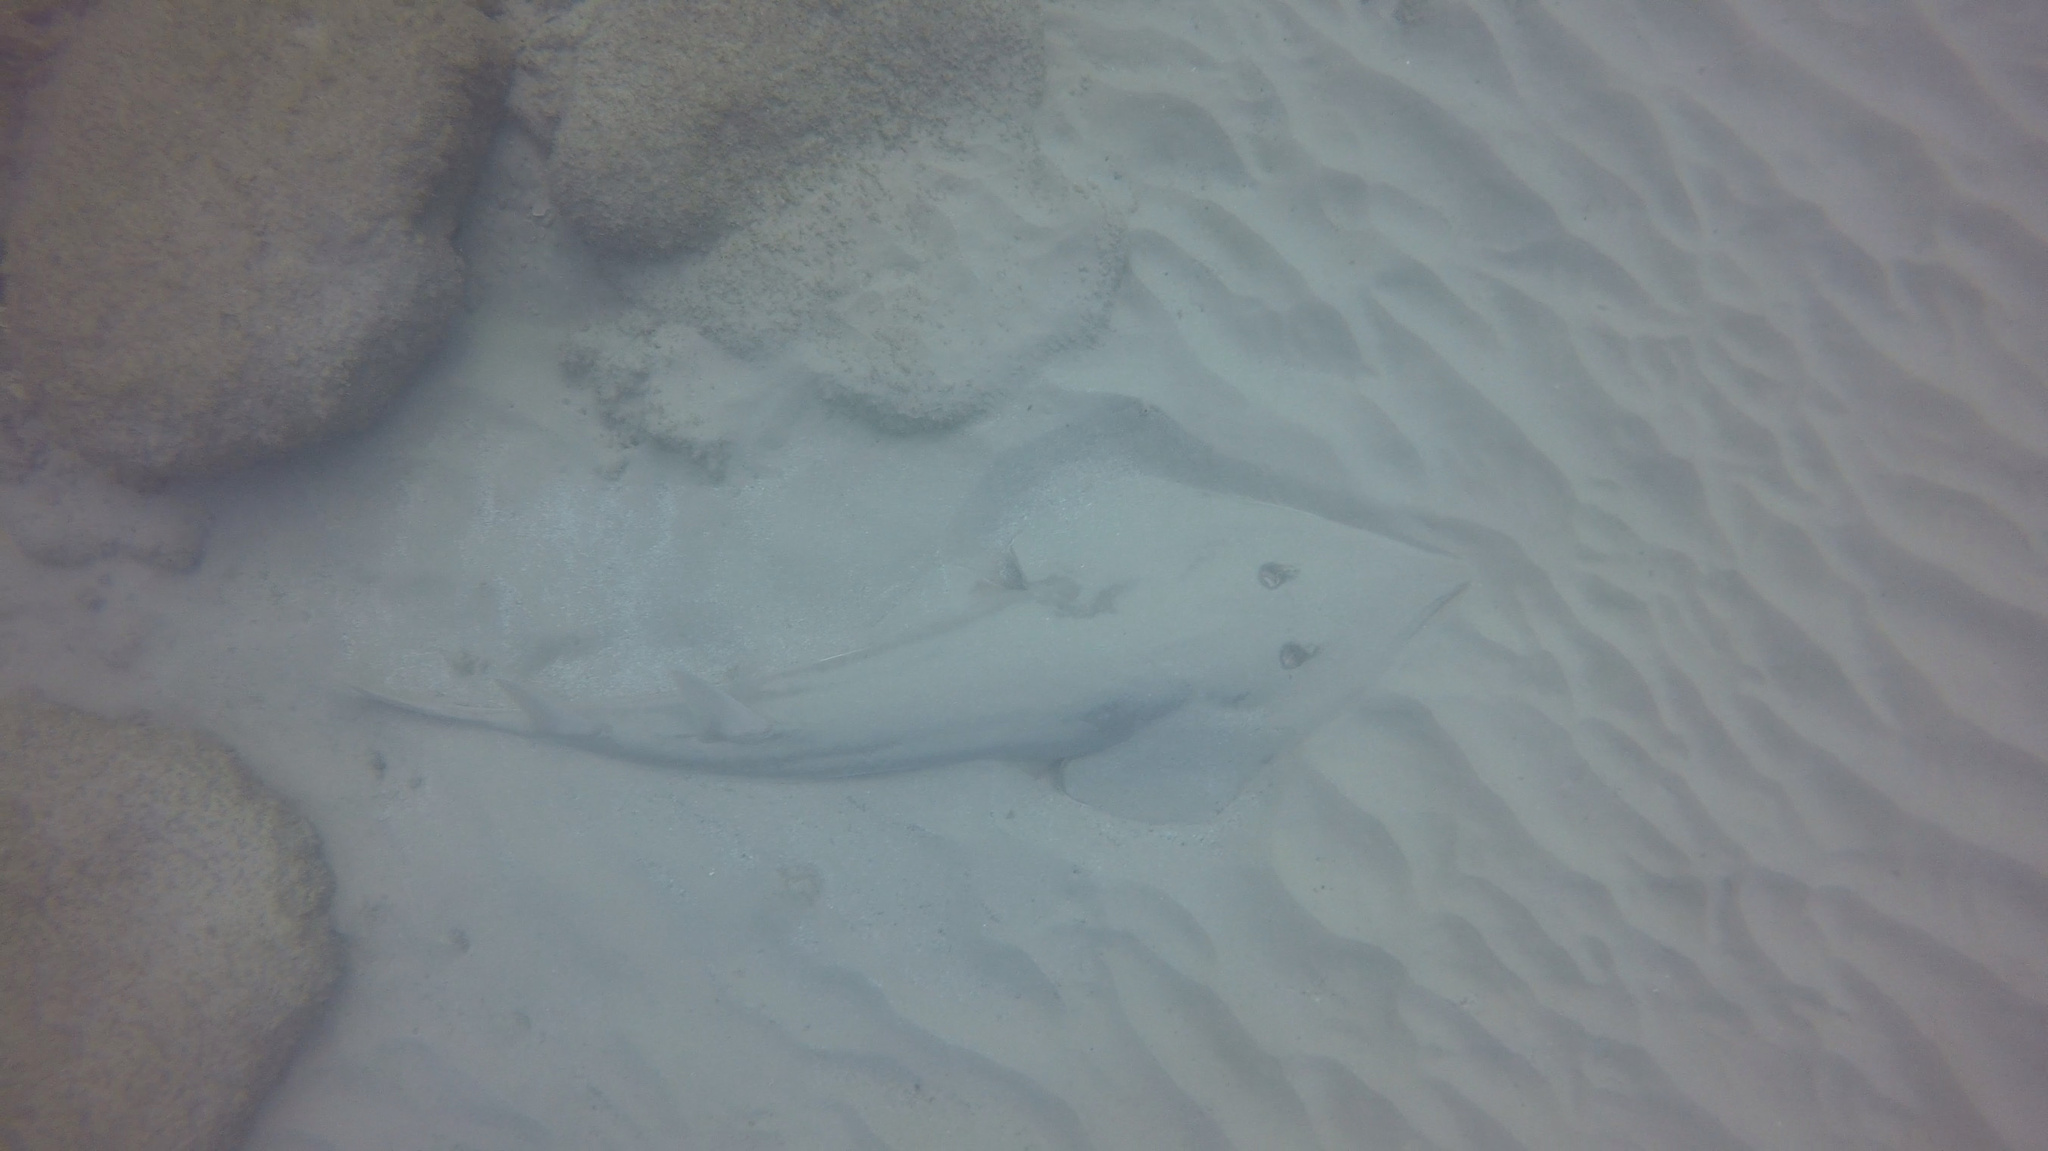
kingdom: Animalia
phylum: Chordata
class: Elasmobranchii
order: Rhinopristiformes
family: Glaucostegidae
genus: Glaucostegus
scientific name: Glaucostegus cemiculus
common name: Blackchin guitarfish
